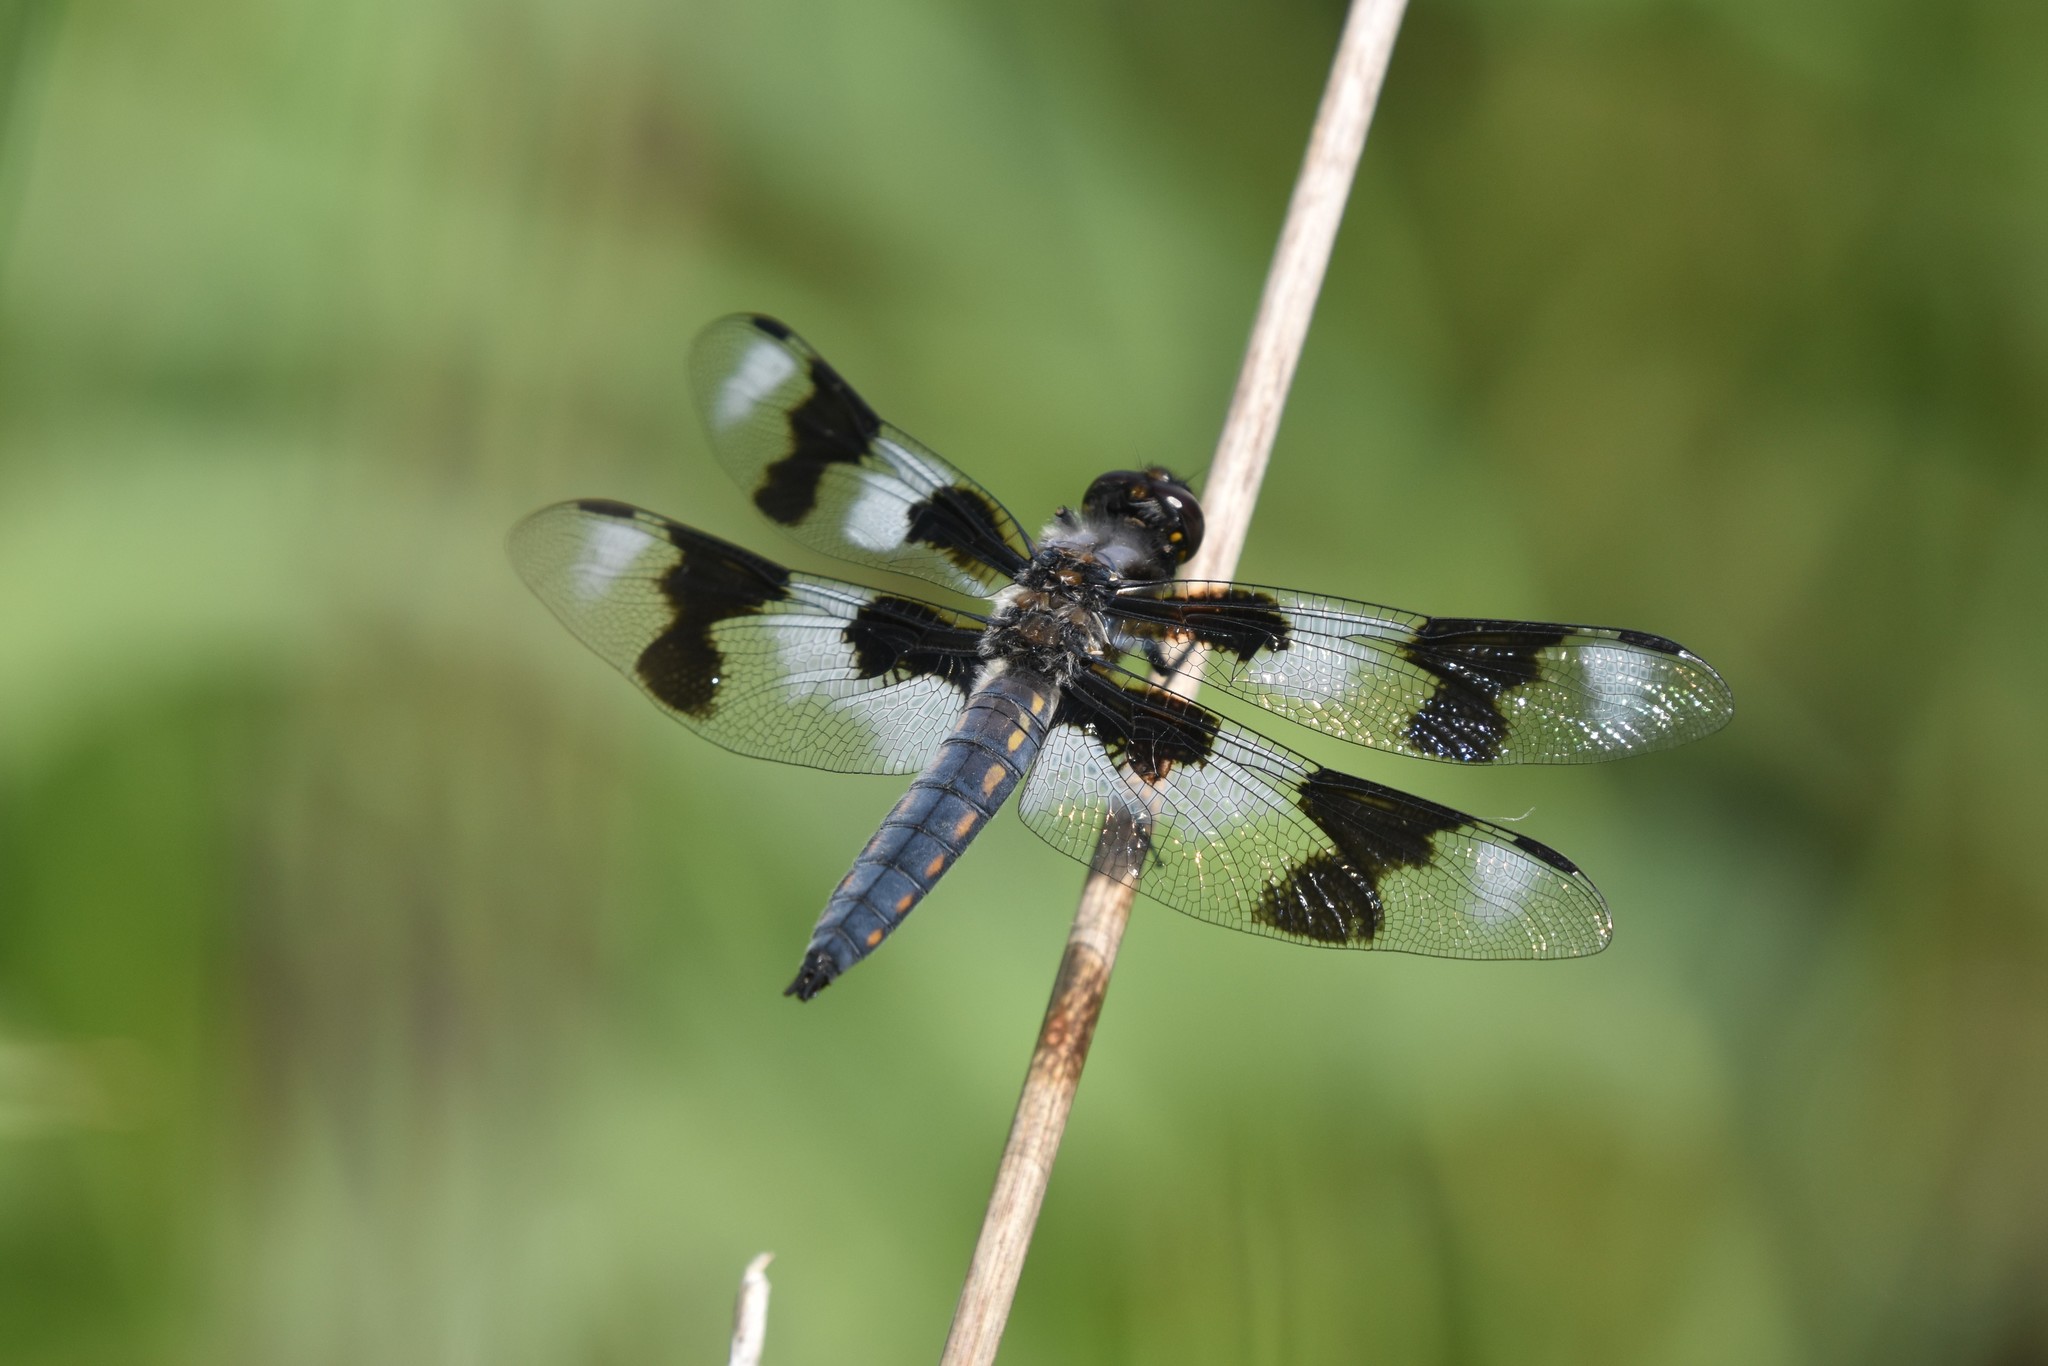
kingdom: Animalia
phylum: Arthropoda
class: Insecta
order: Odonata
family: Libellulidae
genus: Libellula
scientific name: Libellula forensis
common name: Eight-spotted skimmer
